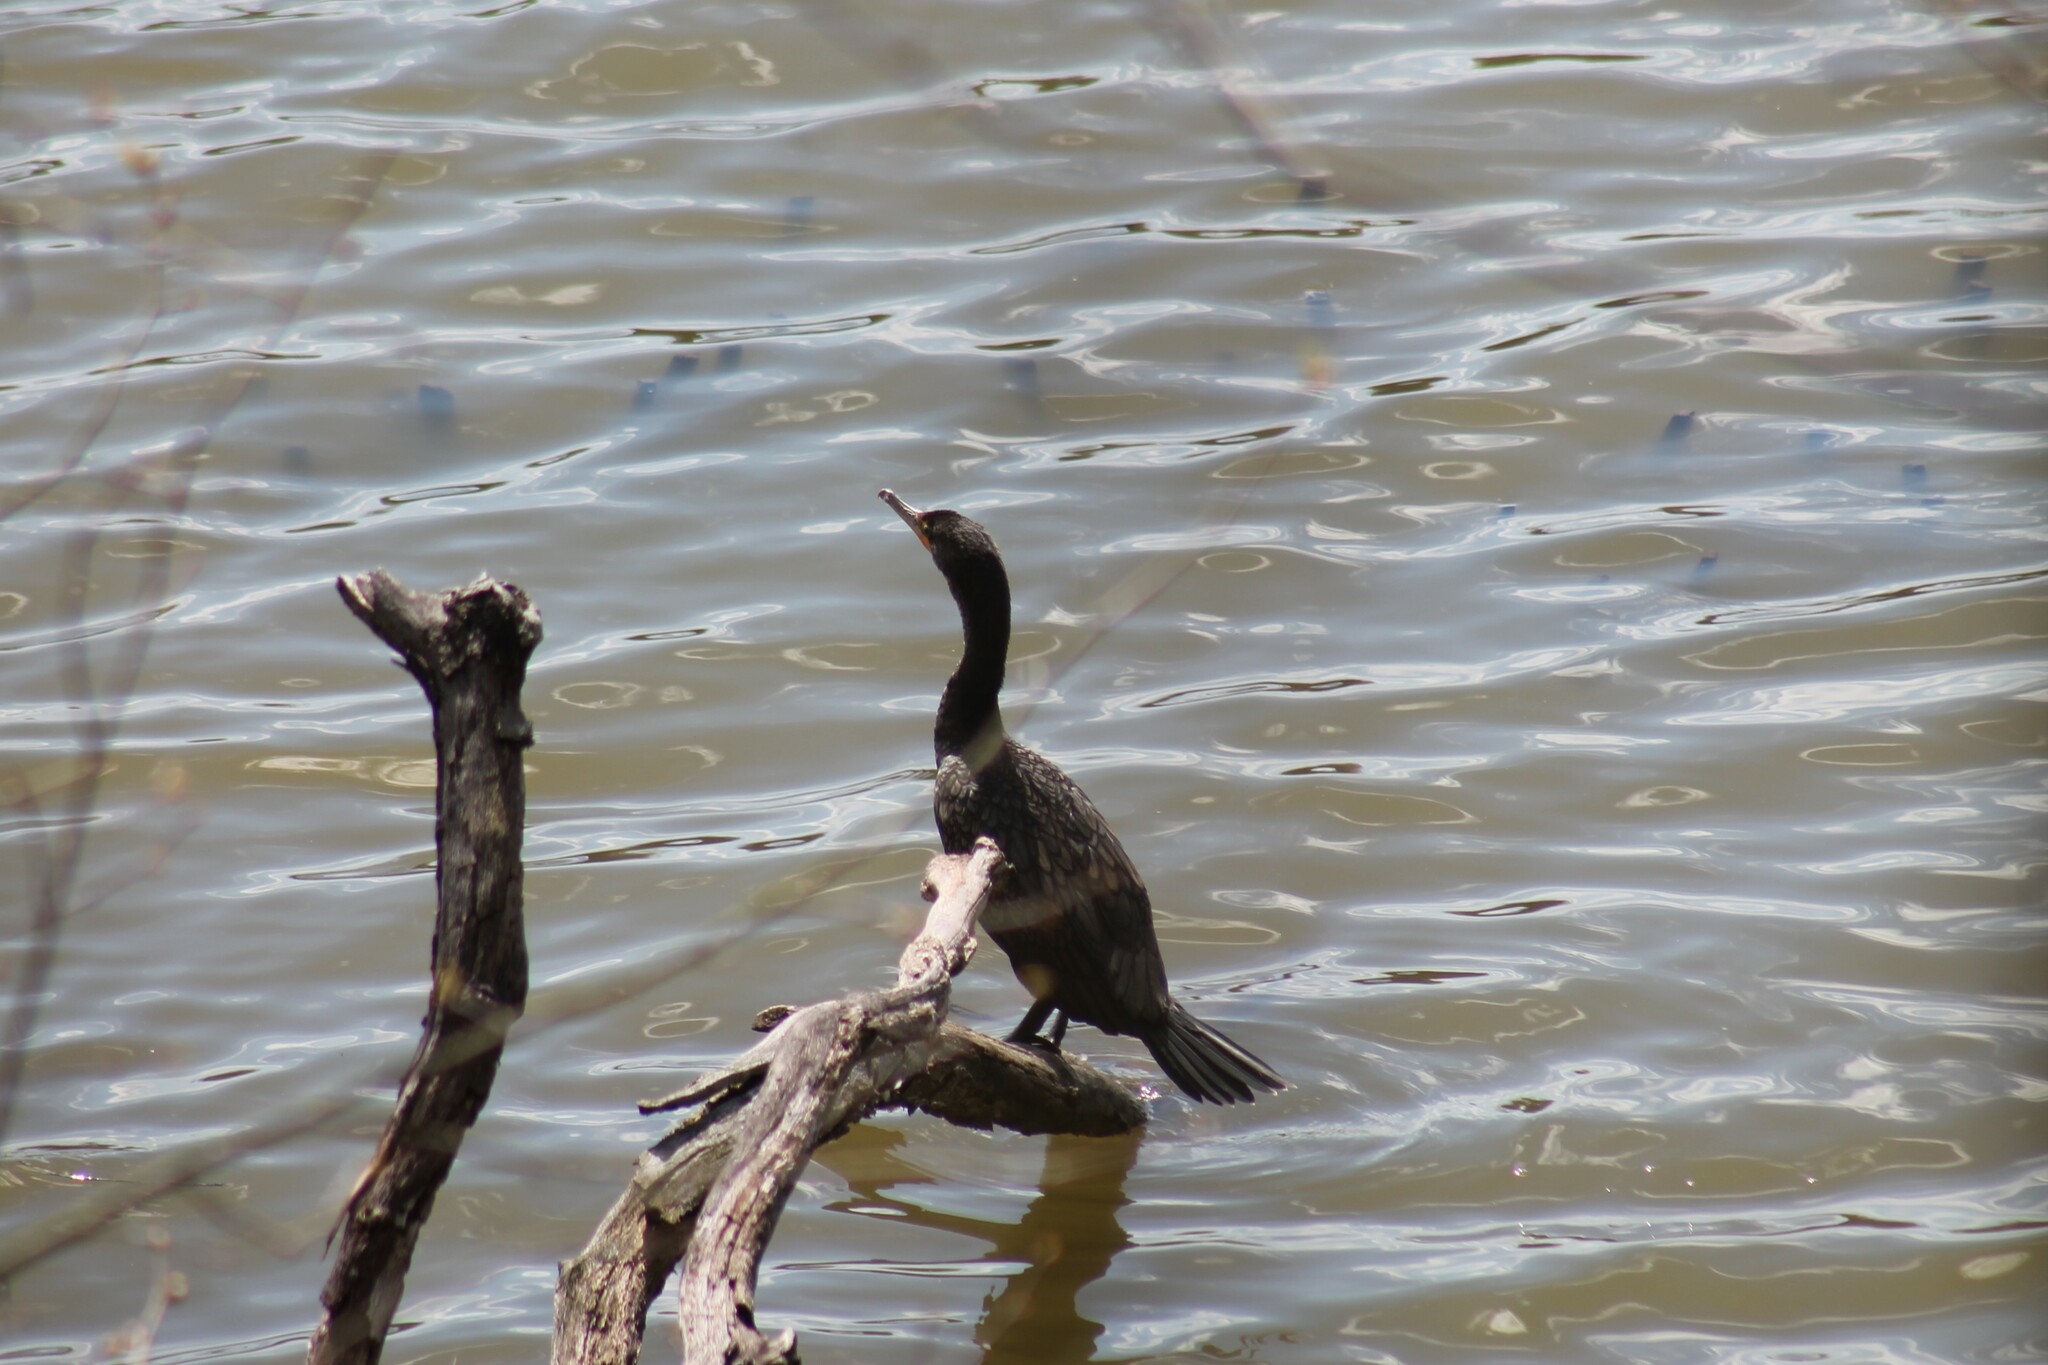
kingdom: Animalia
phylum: Chordata
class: Aves
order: Suliformes
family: Phalacrocoracidae
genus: Phalacrocorax
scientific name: Phalacrocorax auritus
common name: Double-crested cormorant
